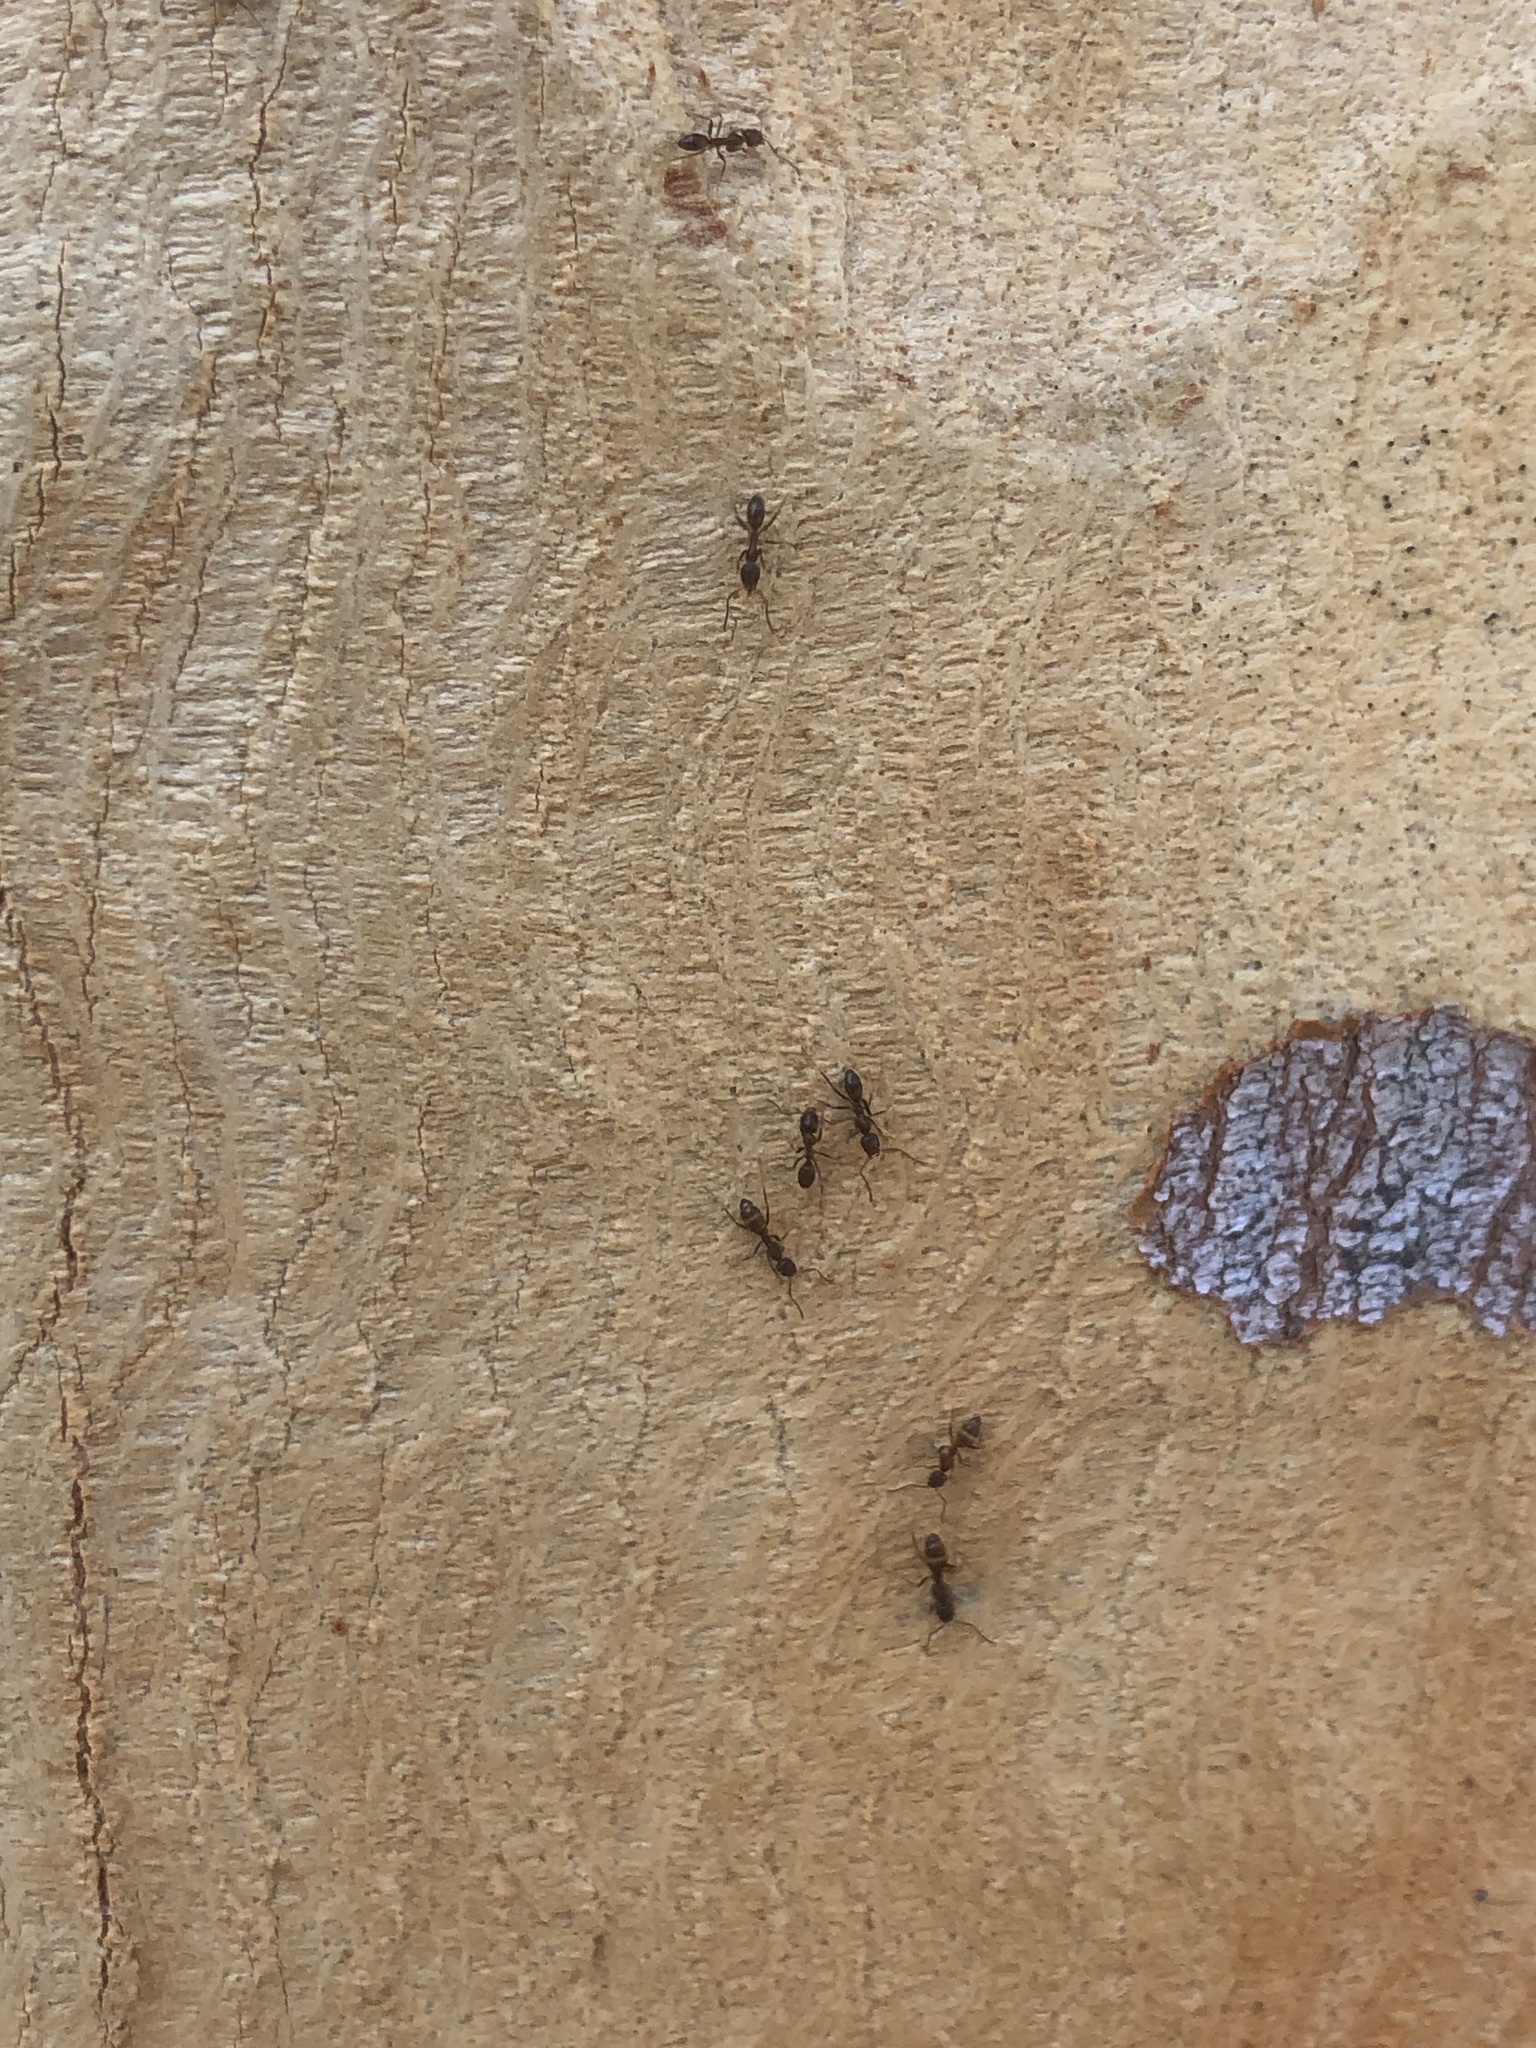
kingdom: Animalia
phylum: Arthropoda
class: Insecta
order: Hymenoptera
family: Formicidae
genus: Linepithema
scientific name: Linepithema humile
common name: Argentine ant
